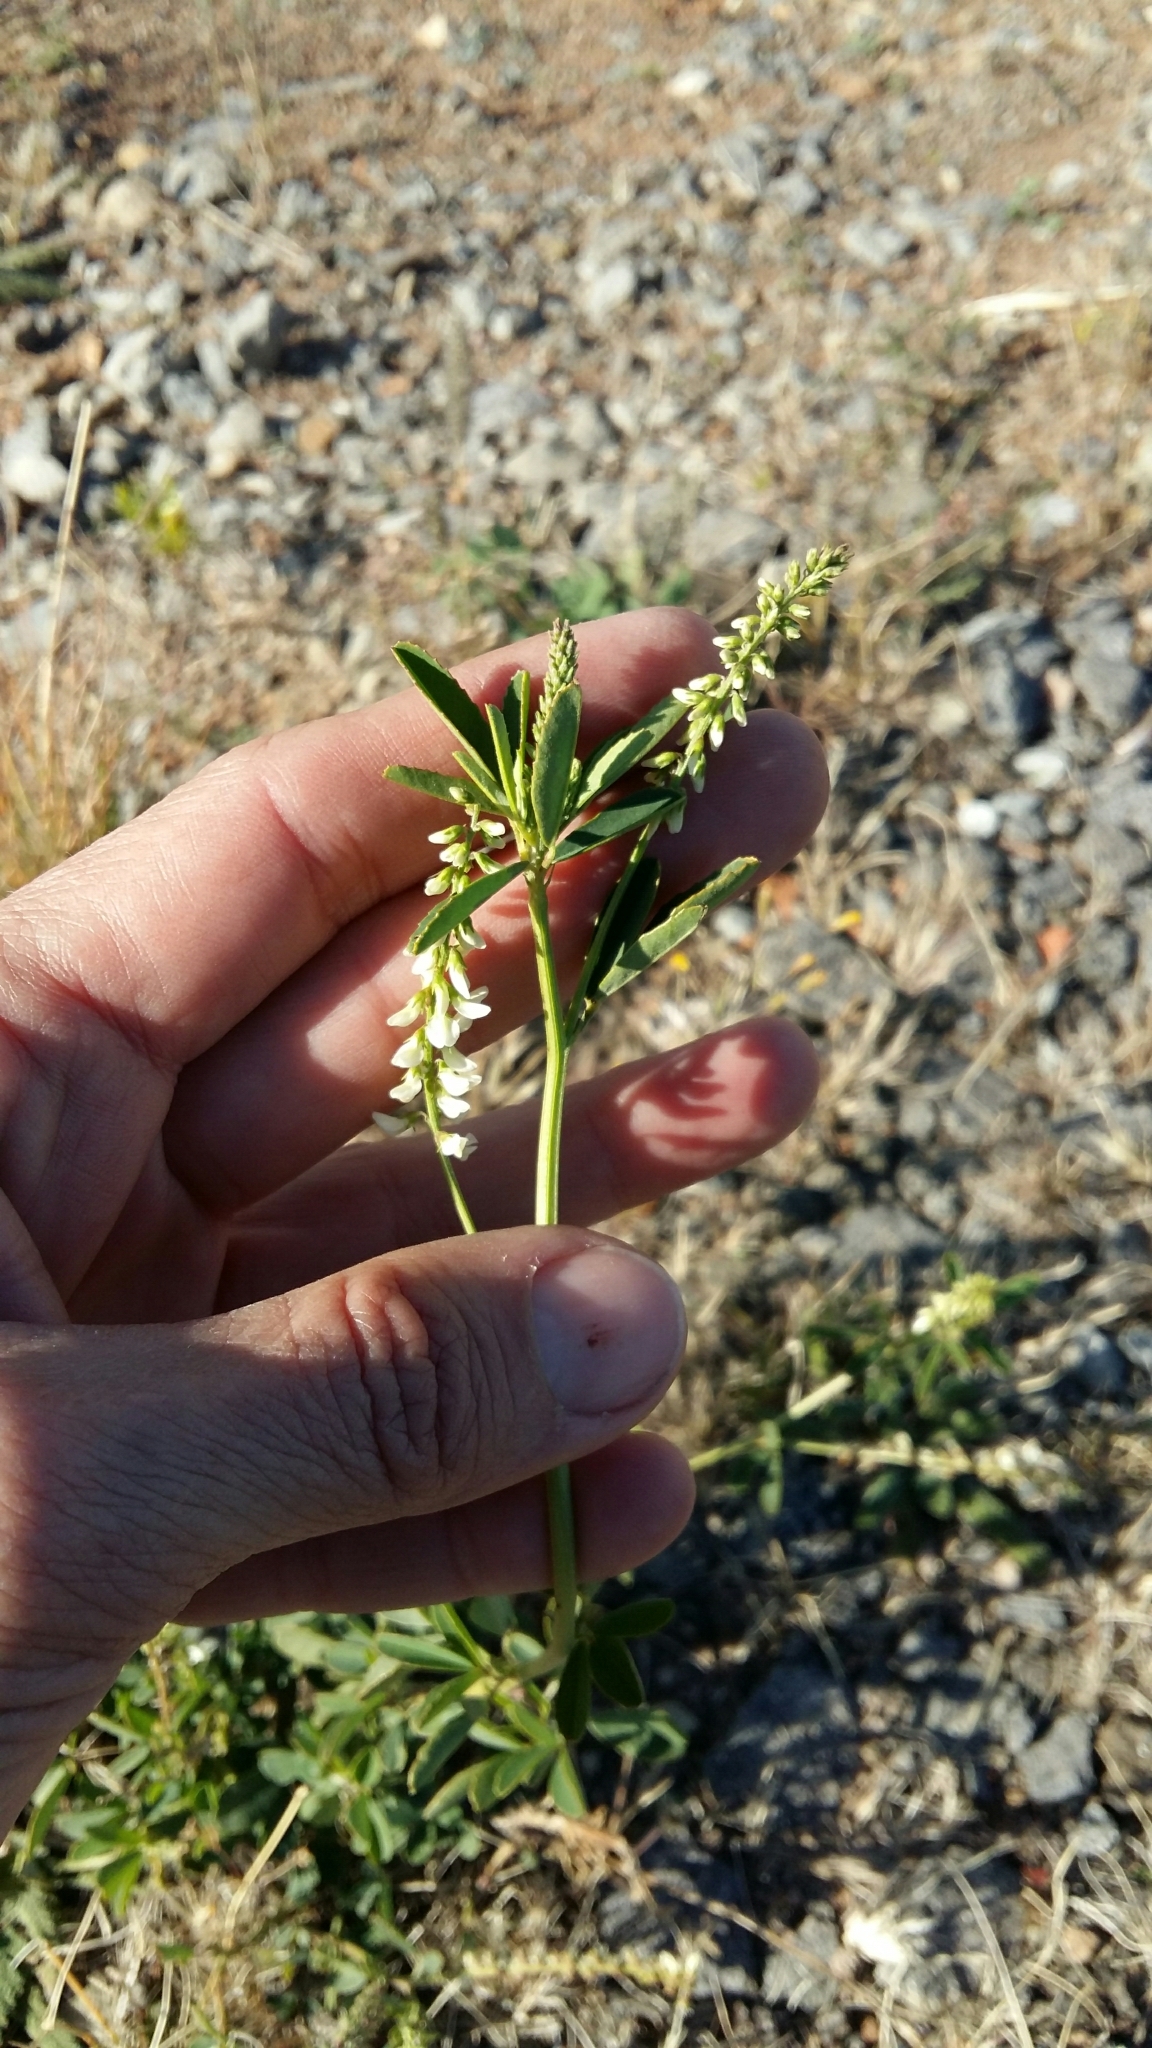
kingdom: Plantae
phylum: Tracheophyta
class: Magnoliopsida
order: Fabales
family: Fabaceae
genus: Melilotus
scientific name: Melilotus albus
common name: White melilot
